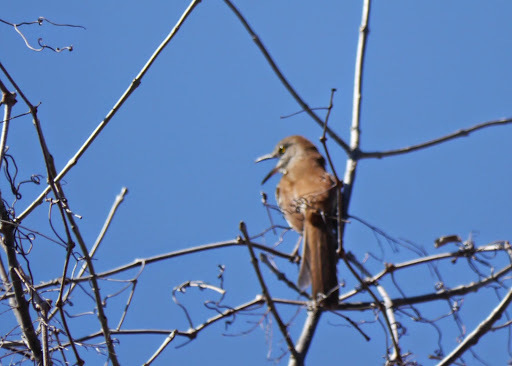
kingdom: Animalia
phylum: Chordata
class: Aves
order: Passeriformes
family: Mimidae
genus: Toxostoma
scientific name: Toxostoma rufum
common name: Brown thrasher
